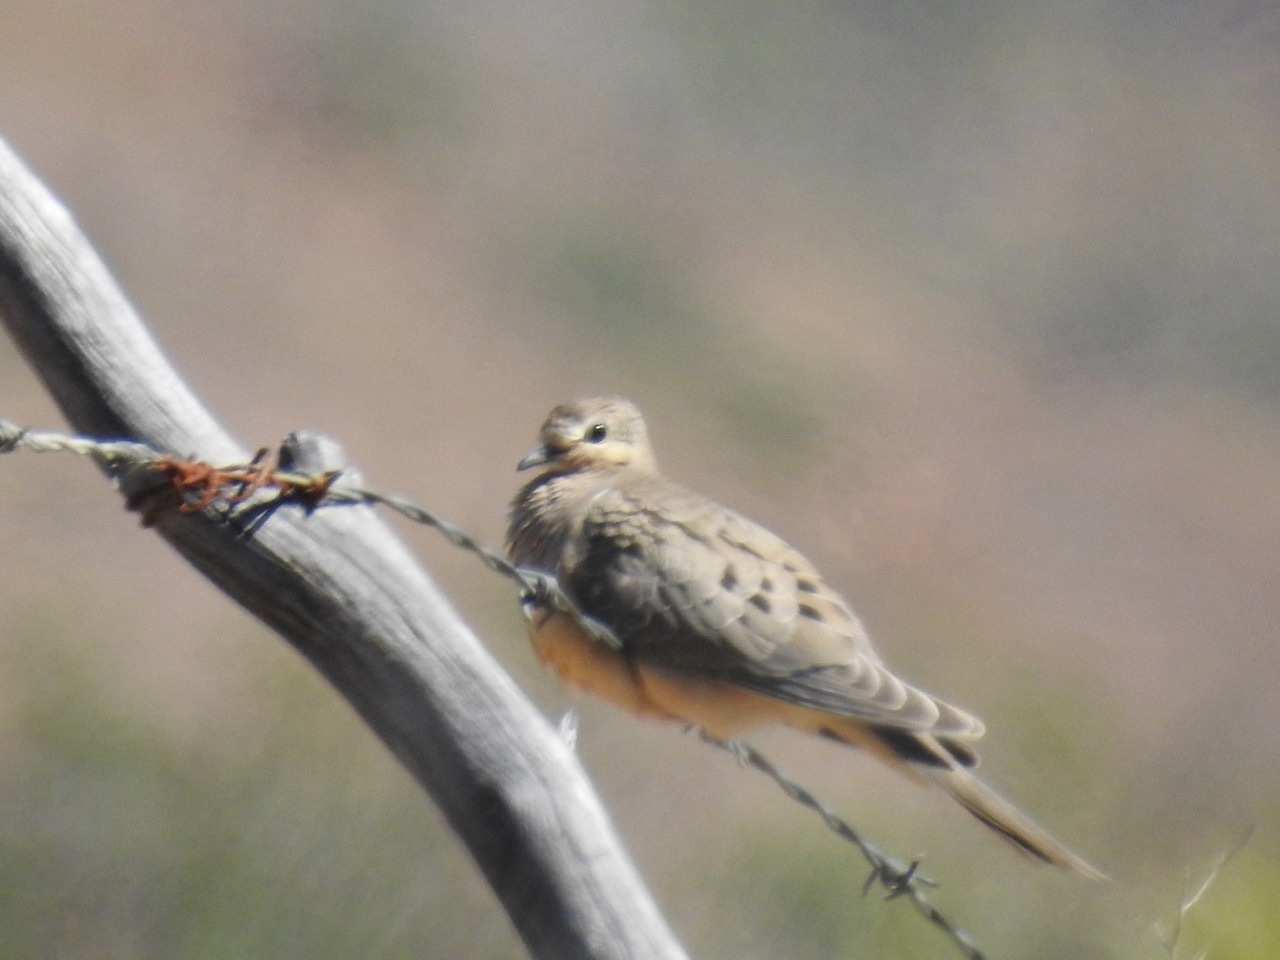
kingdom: Animalia
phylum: Chordata
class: Aves
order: Columbiformes
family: Columbidae
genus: Zenaida
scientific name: Zenaida macroura
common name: Mourning dove
